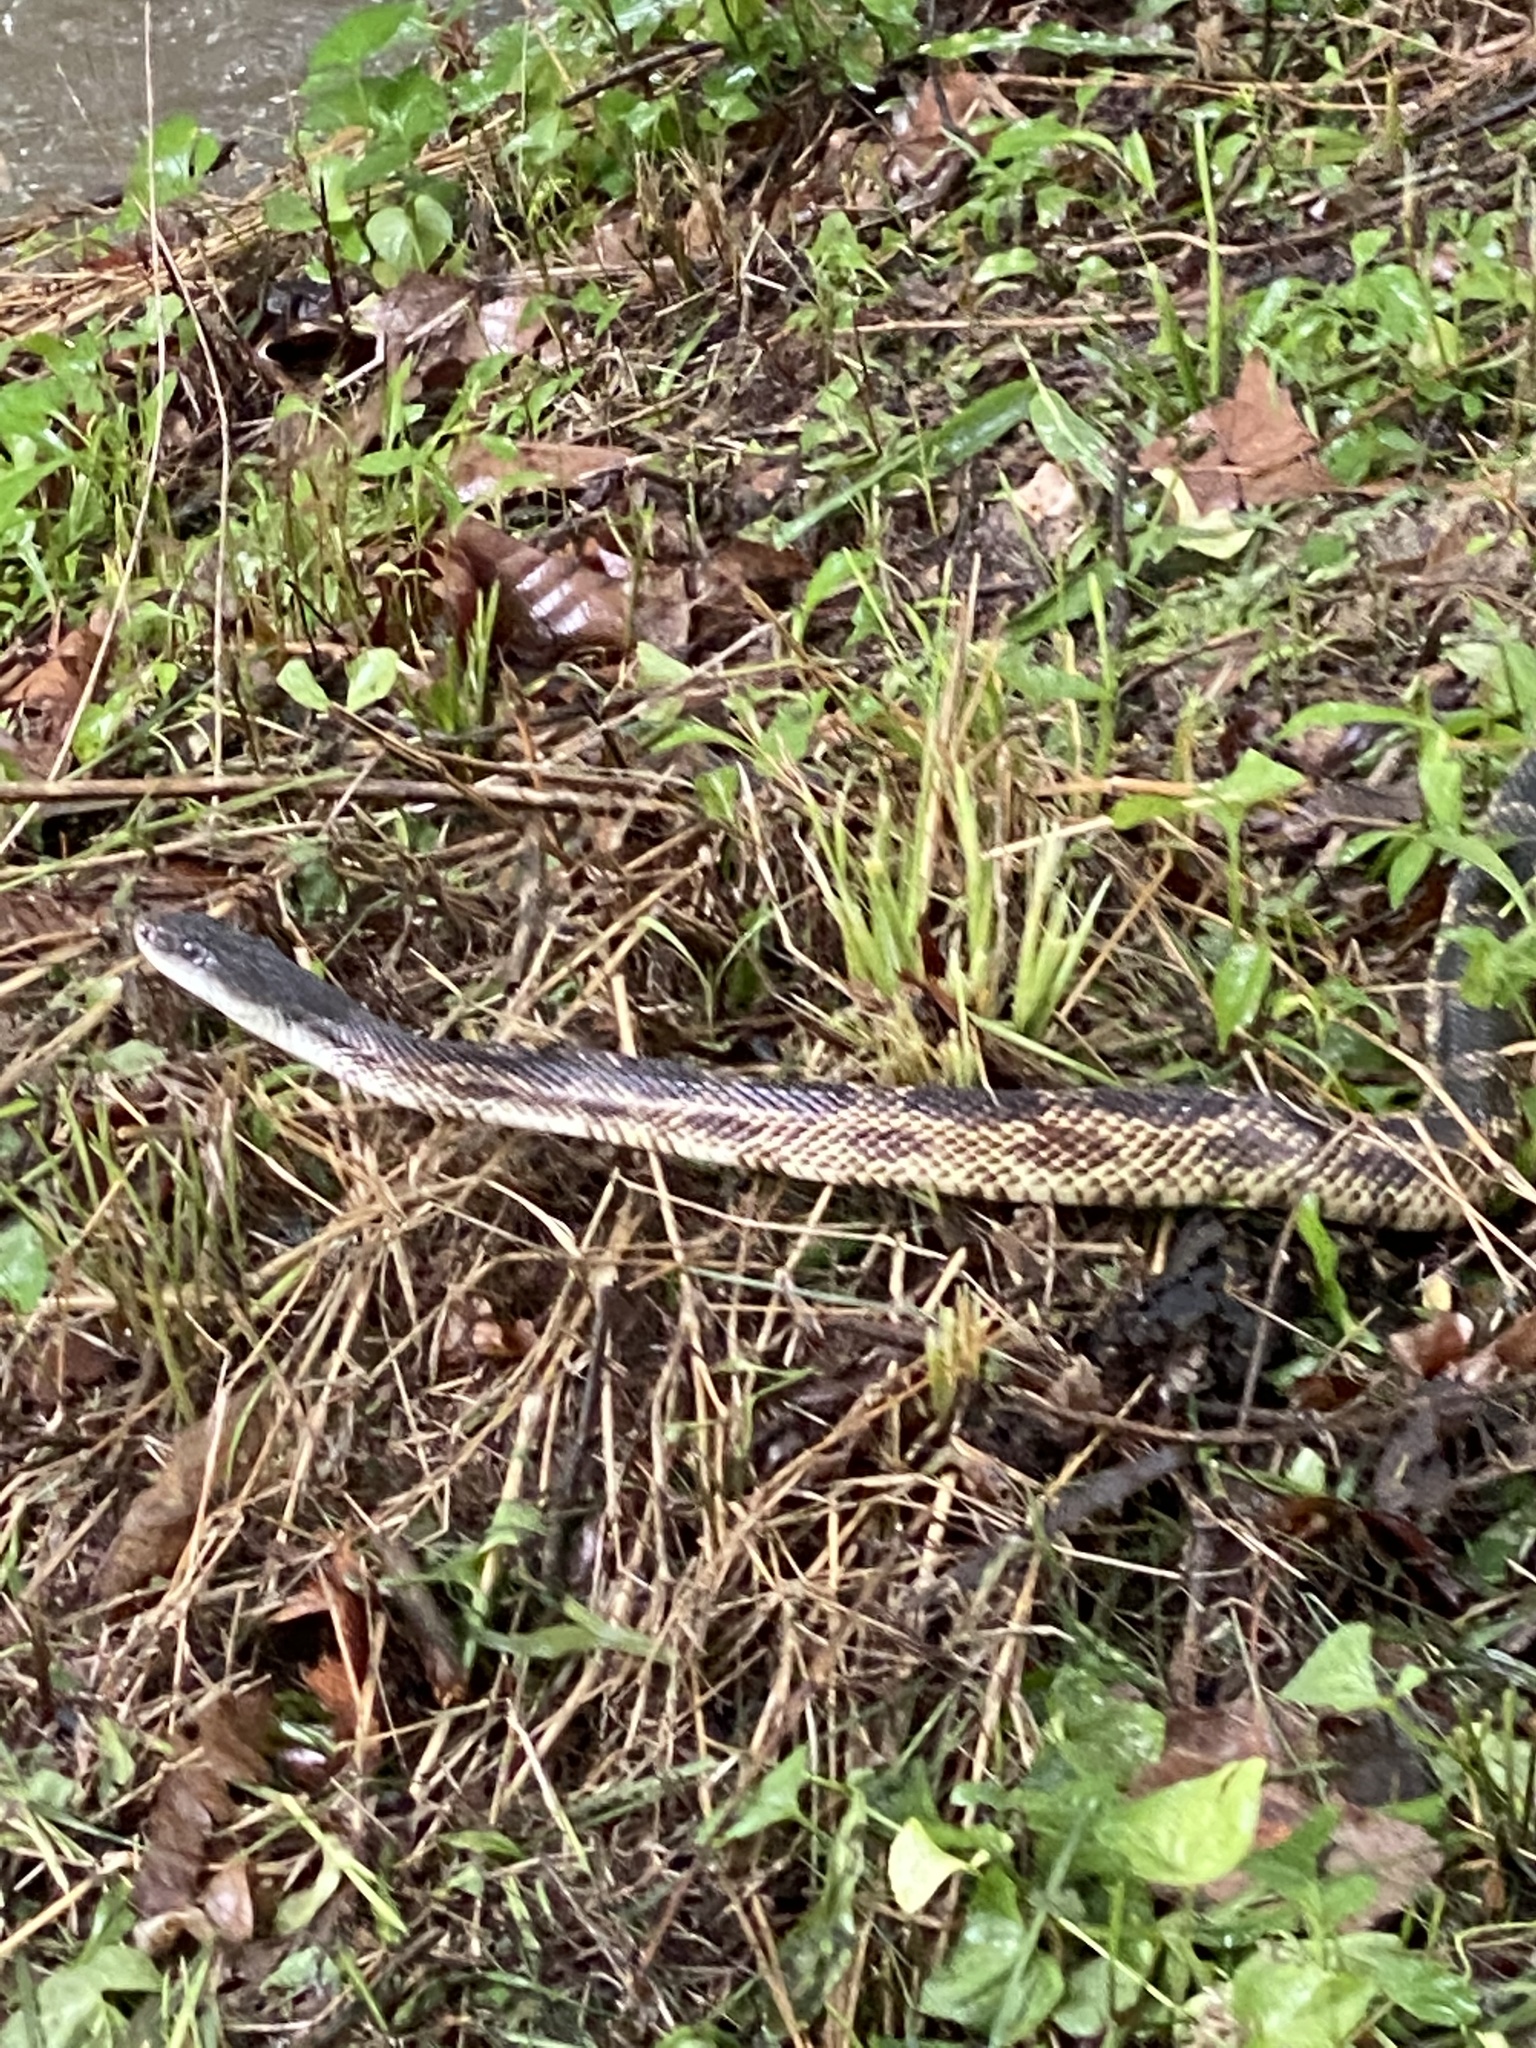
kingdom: Animalia
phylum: Chordata
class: Squamata
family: Colubridae
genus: Pantherophis
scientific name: Pantherophis obsoletus
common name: Black rat snake
